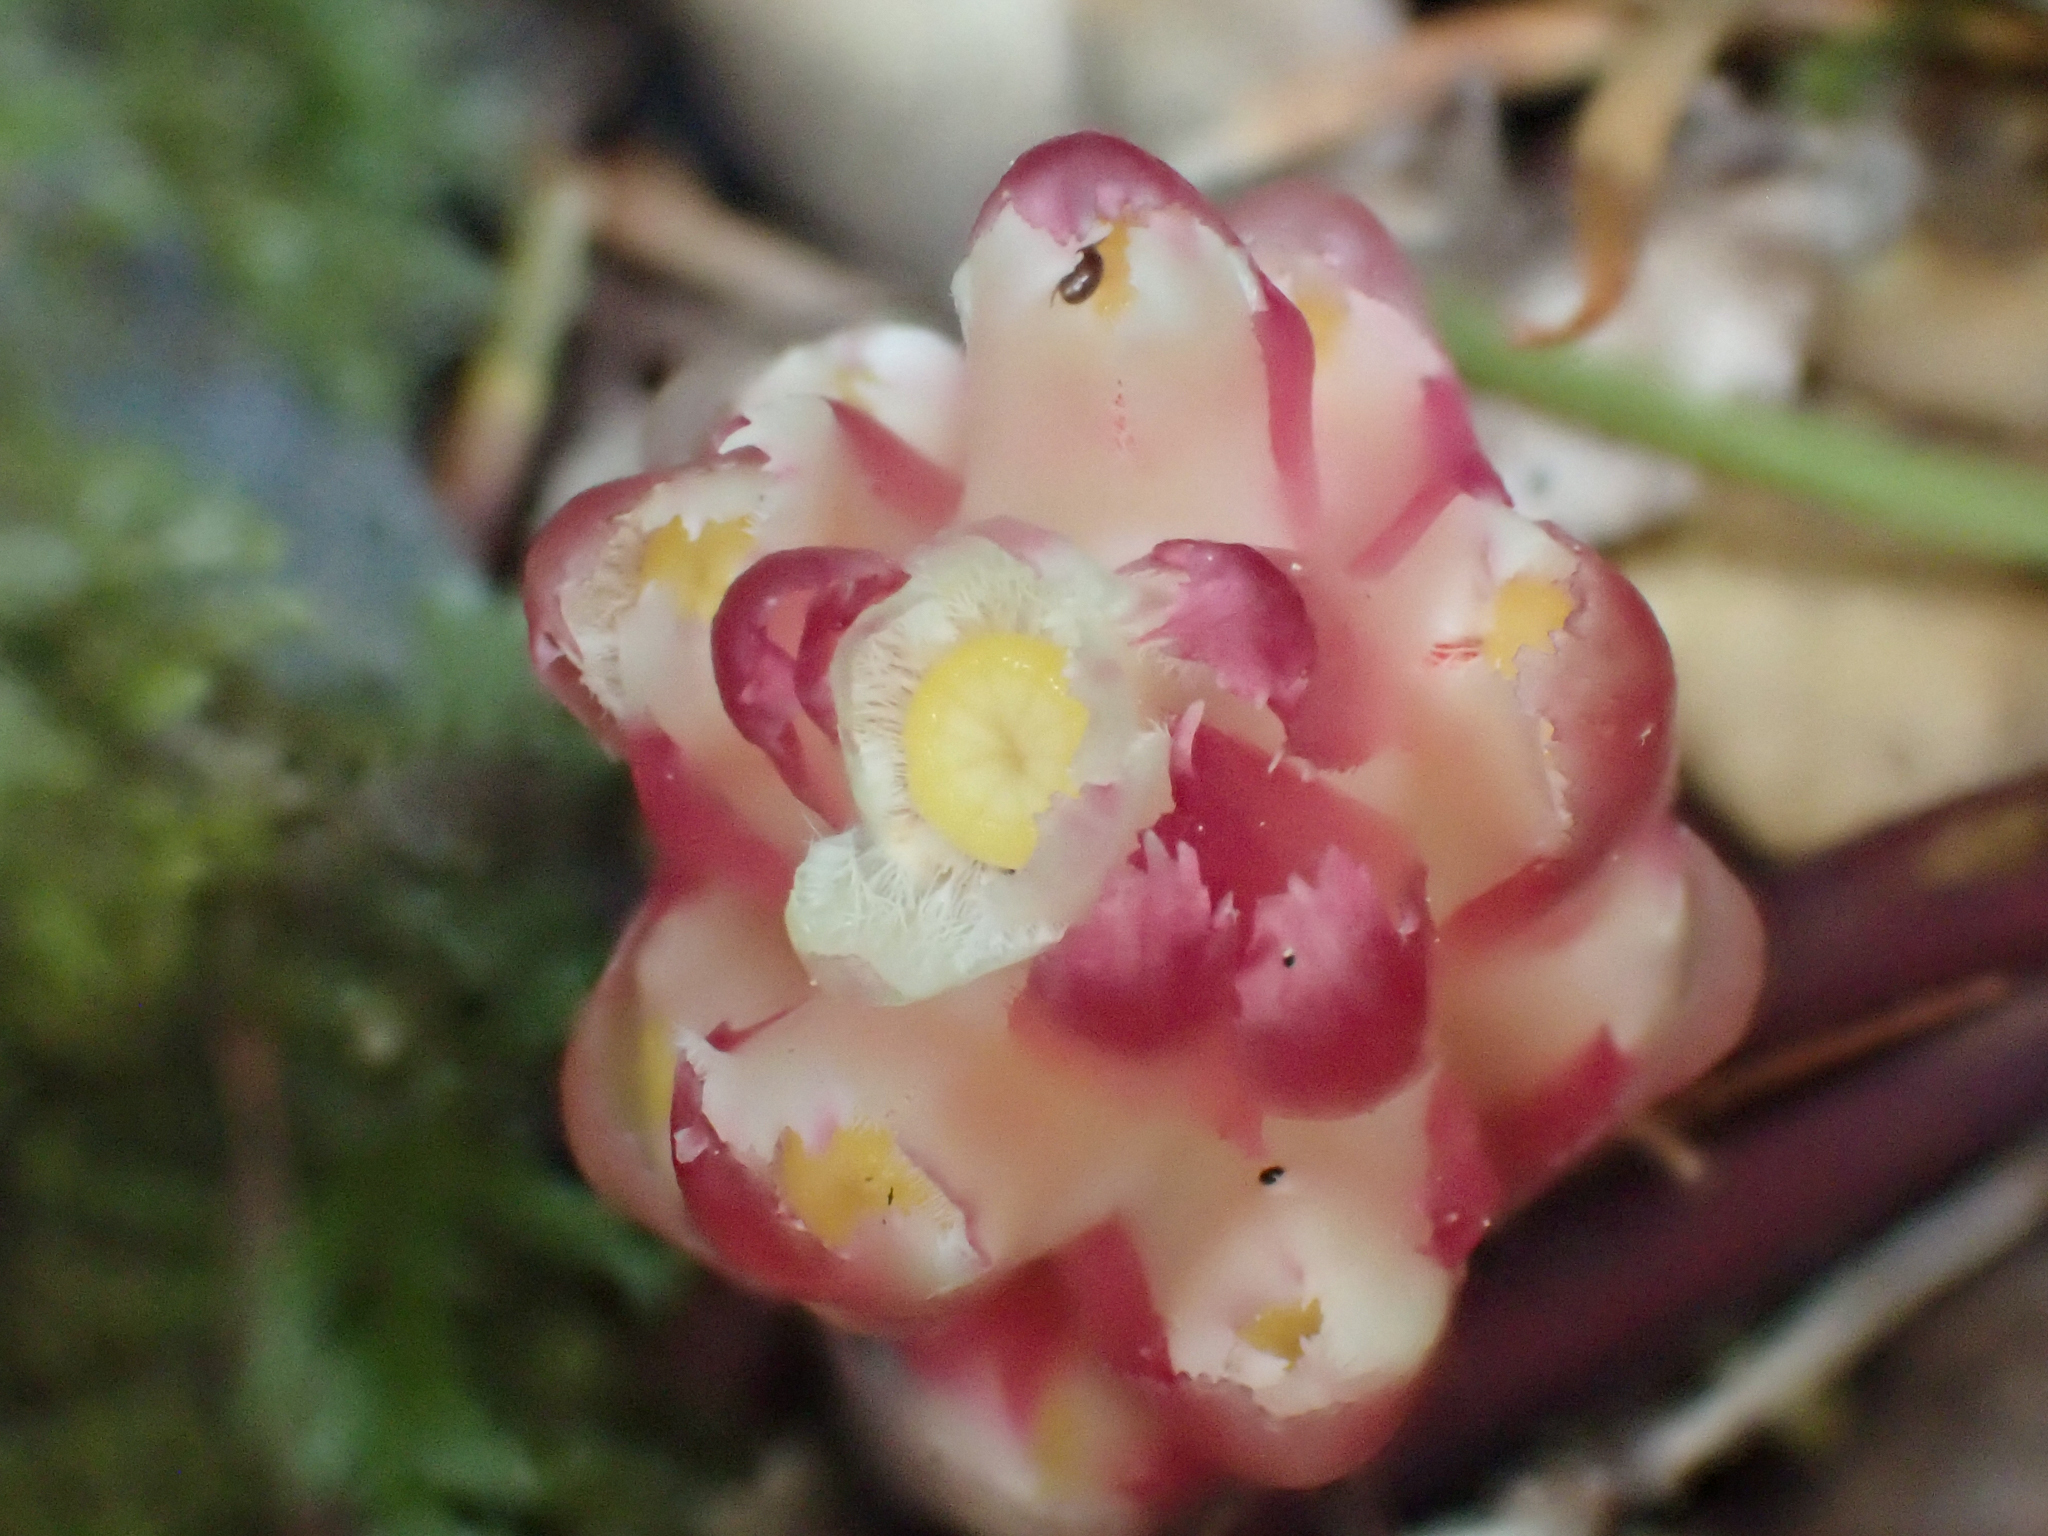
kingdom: Plantae
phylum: Tracheophyta
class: Magnoliopsida
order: Ericales
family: Ericaceae
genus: Hemitomes
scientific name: Hemitomes congestum
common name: Cone plant
